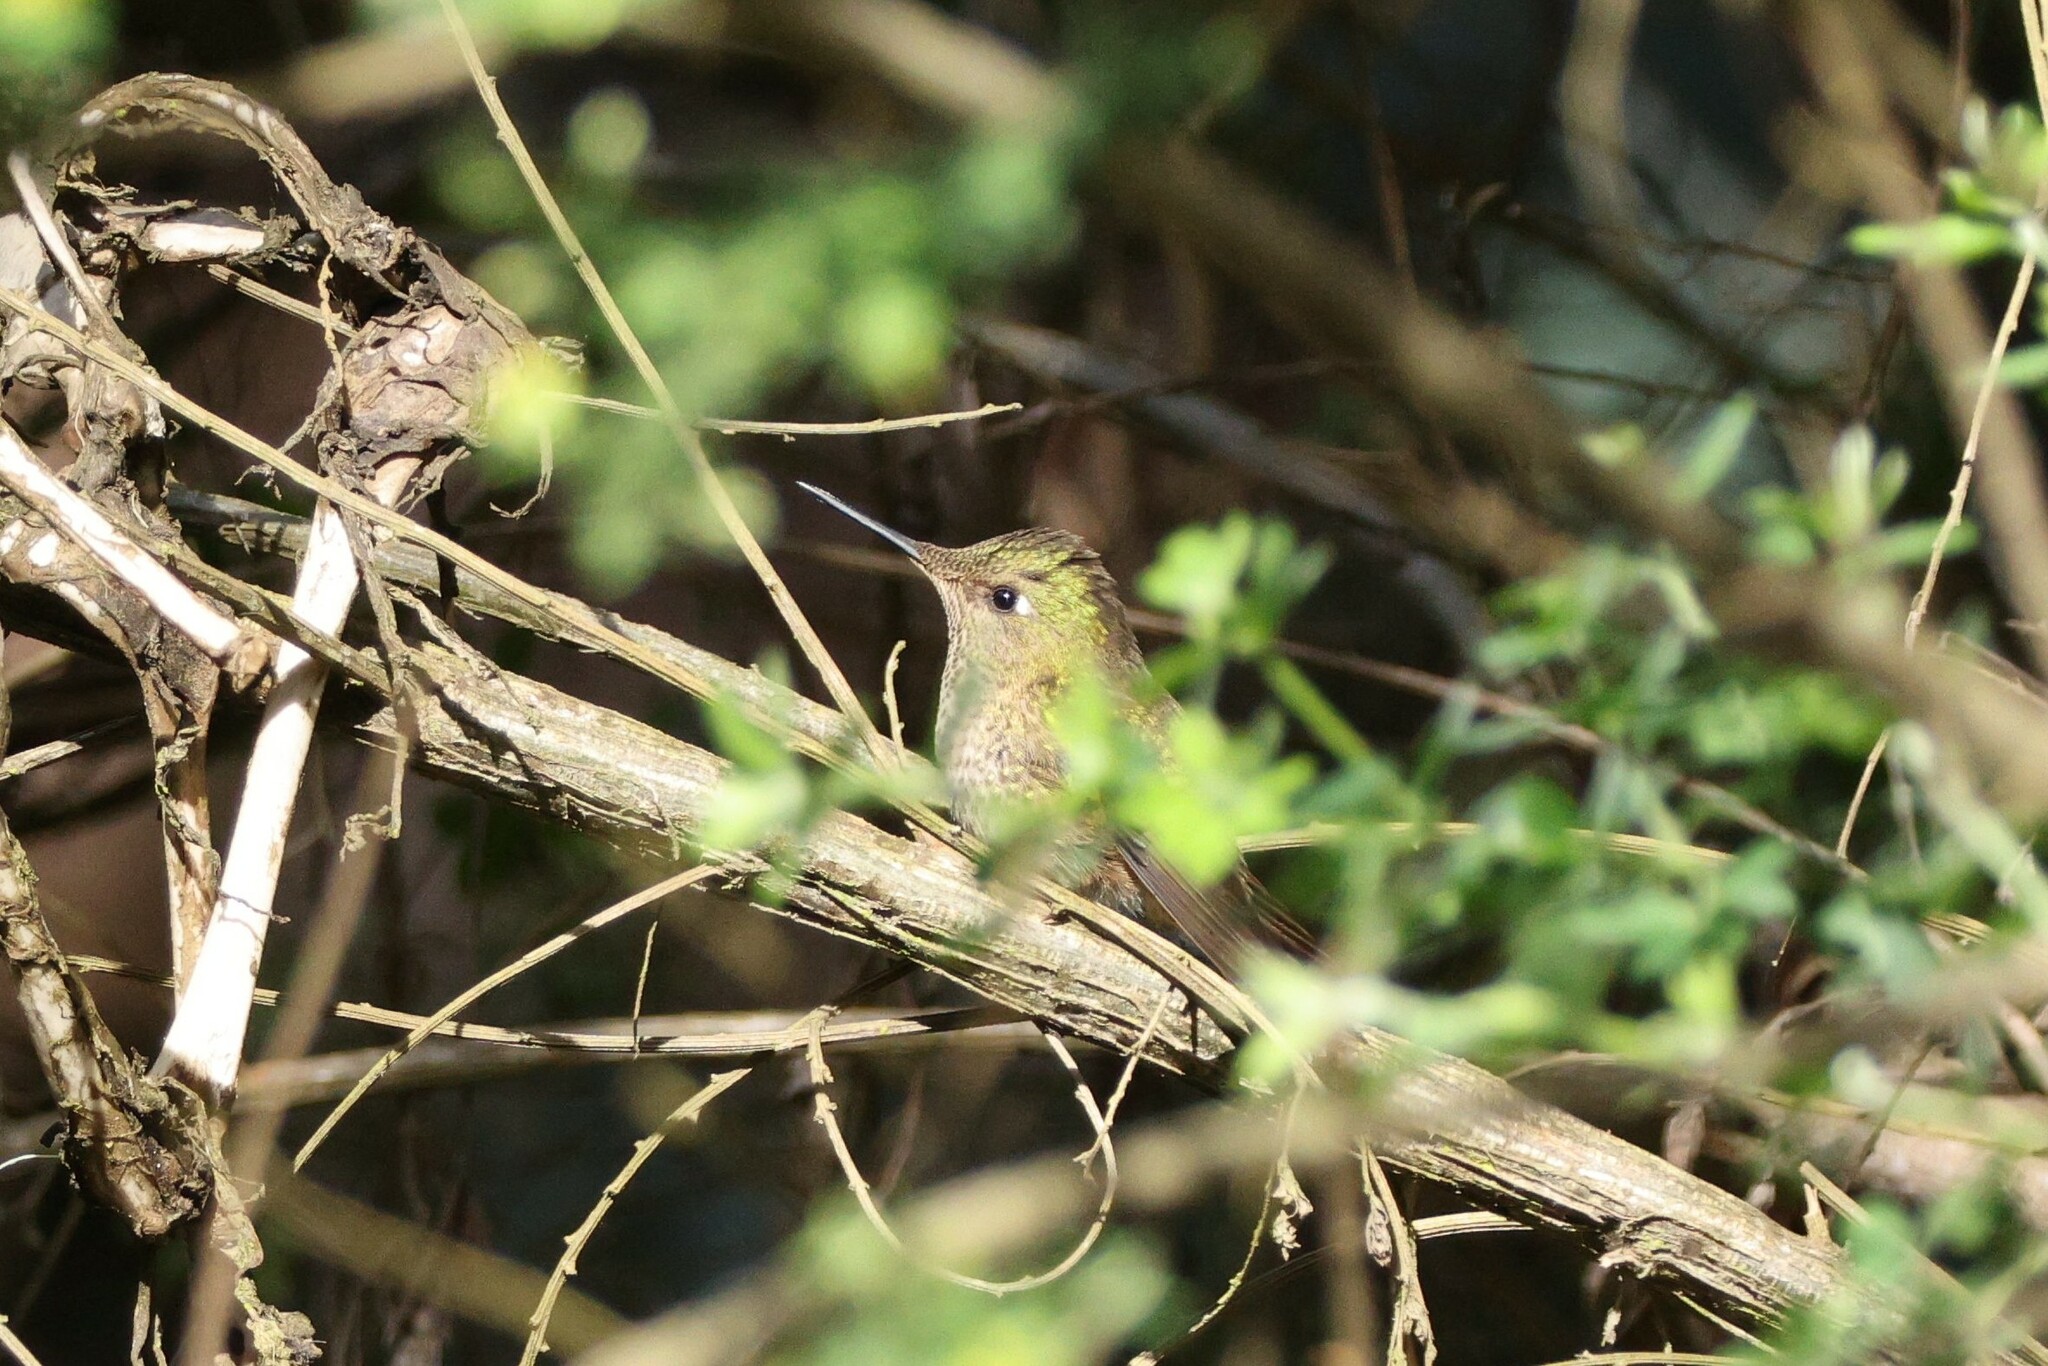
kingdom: Animalia
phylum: Chordata
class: Aves
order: Apodiformes
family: Trochilidae
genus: Sephanoides
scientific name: Sephanoides sephaniodes
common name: Green-backed firecrown
